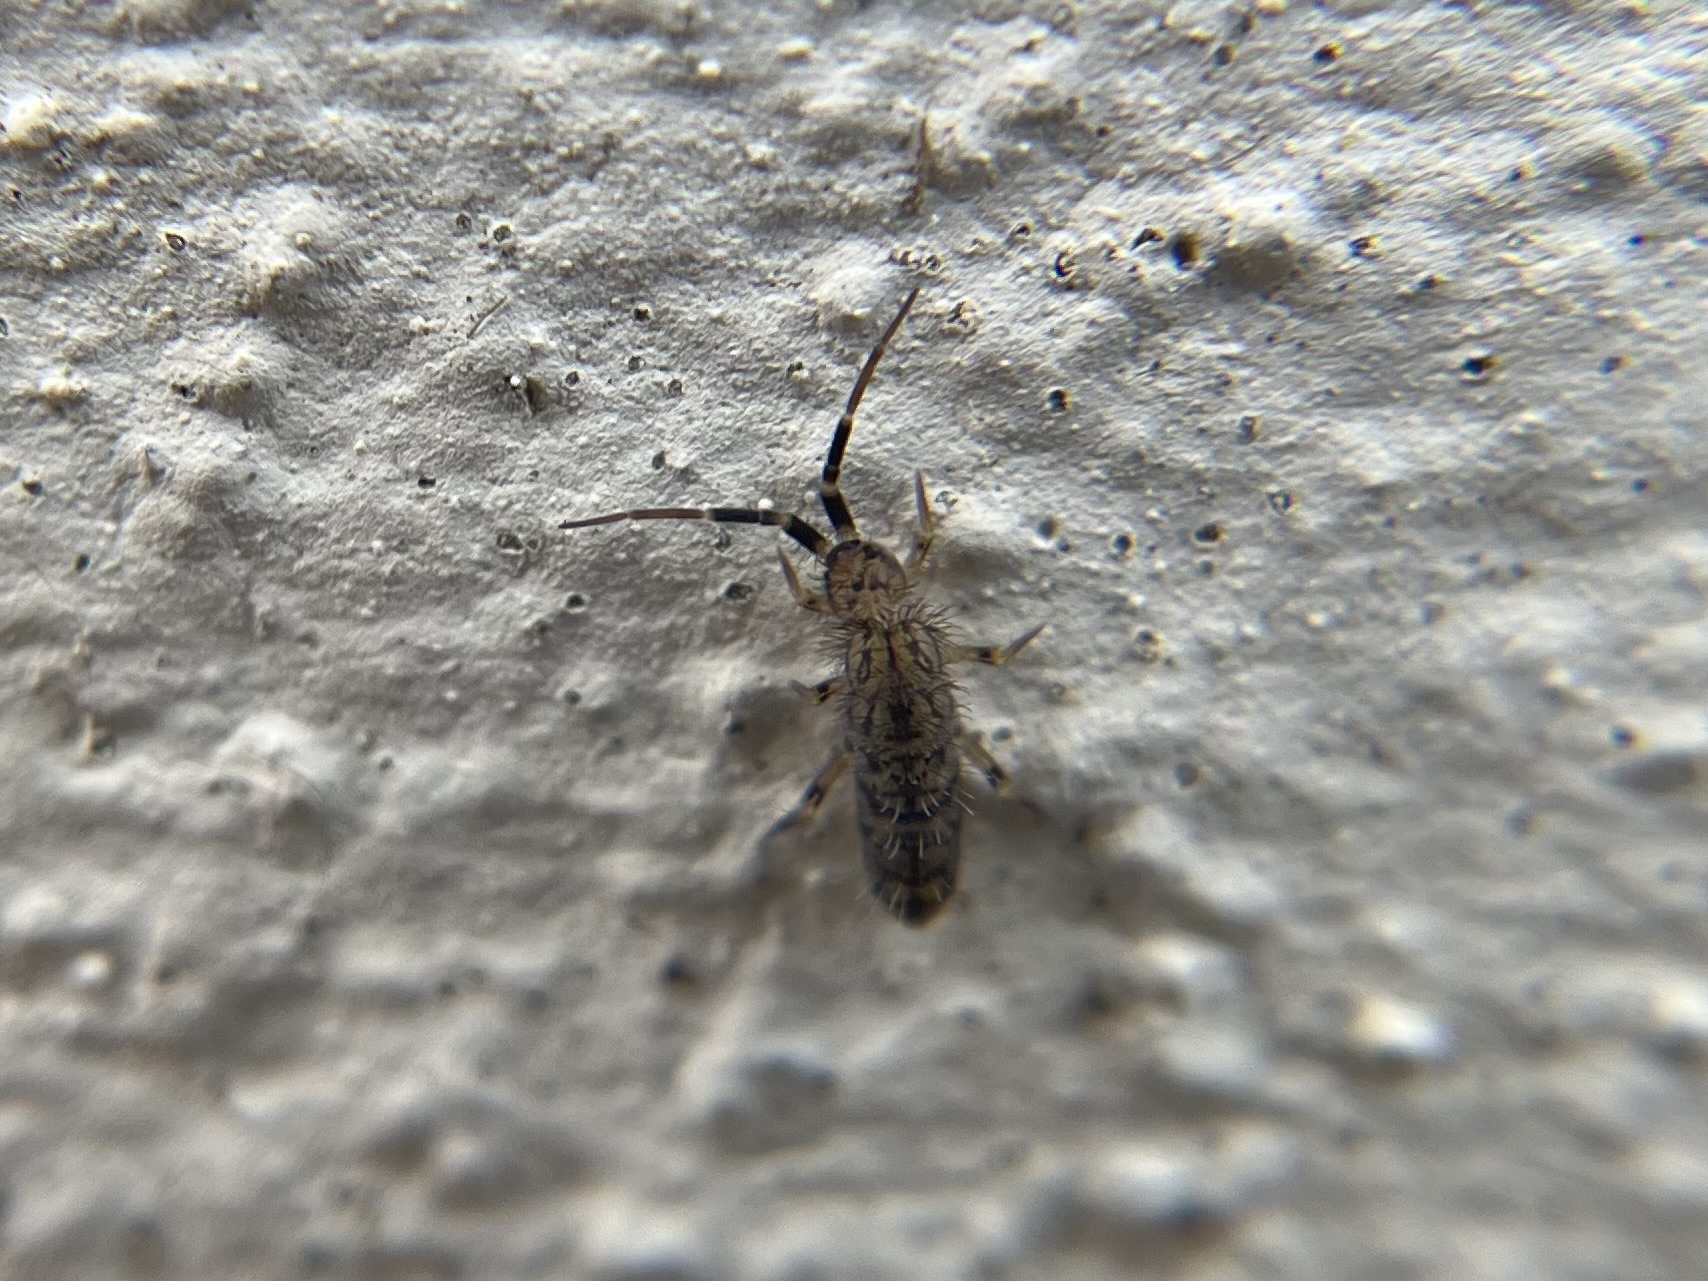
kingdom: Animalia
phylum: Arthropoda
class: Collembola
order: Entomobryomorpha
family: Orchesellidae
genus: Orchesella
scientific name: Orchesella villosa
